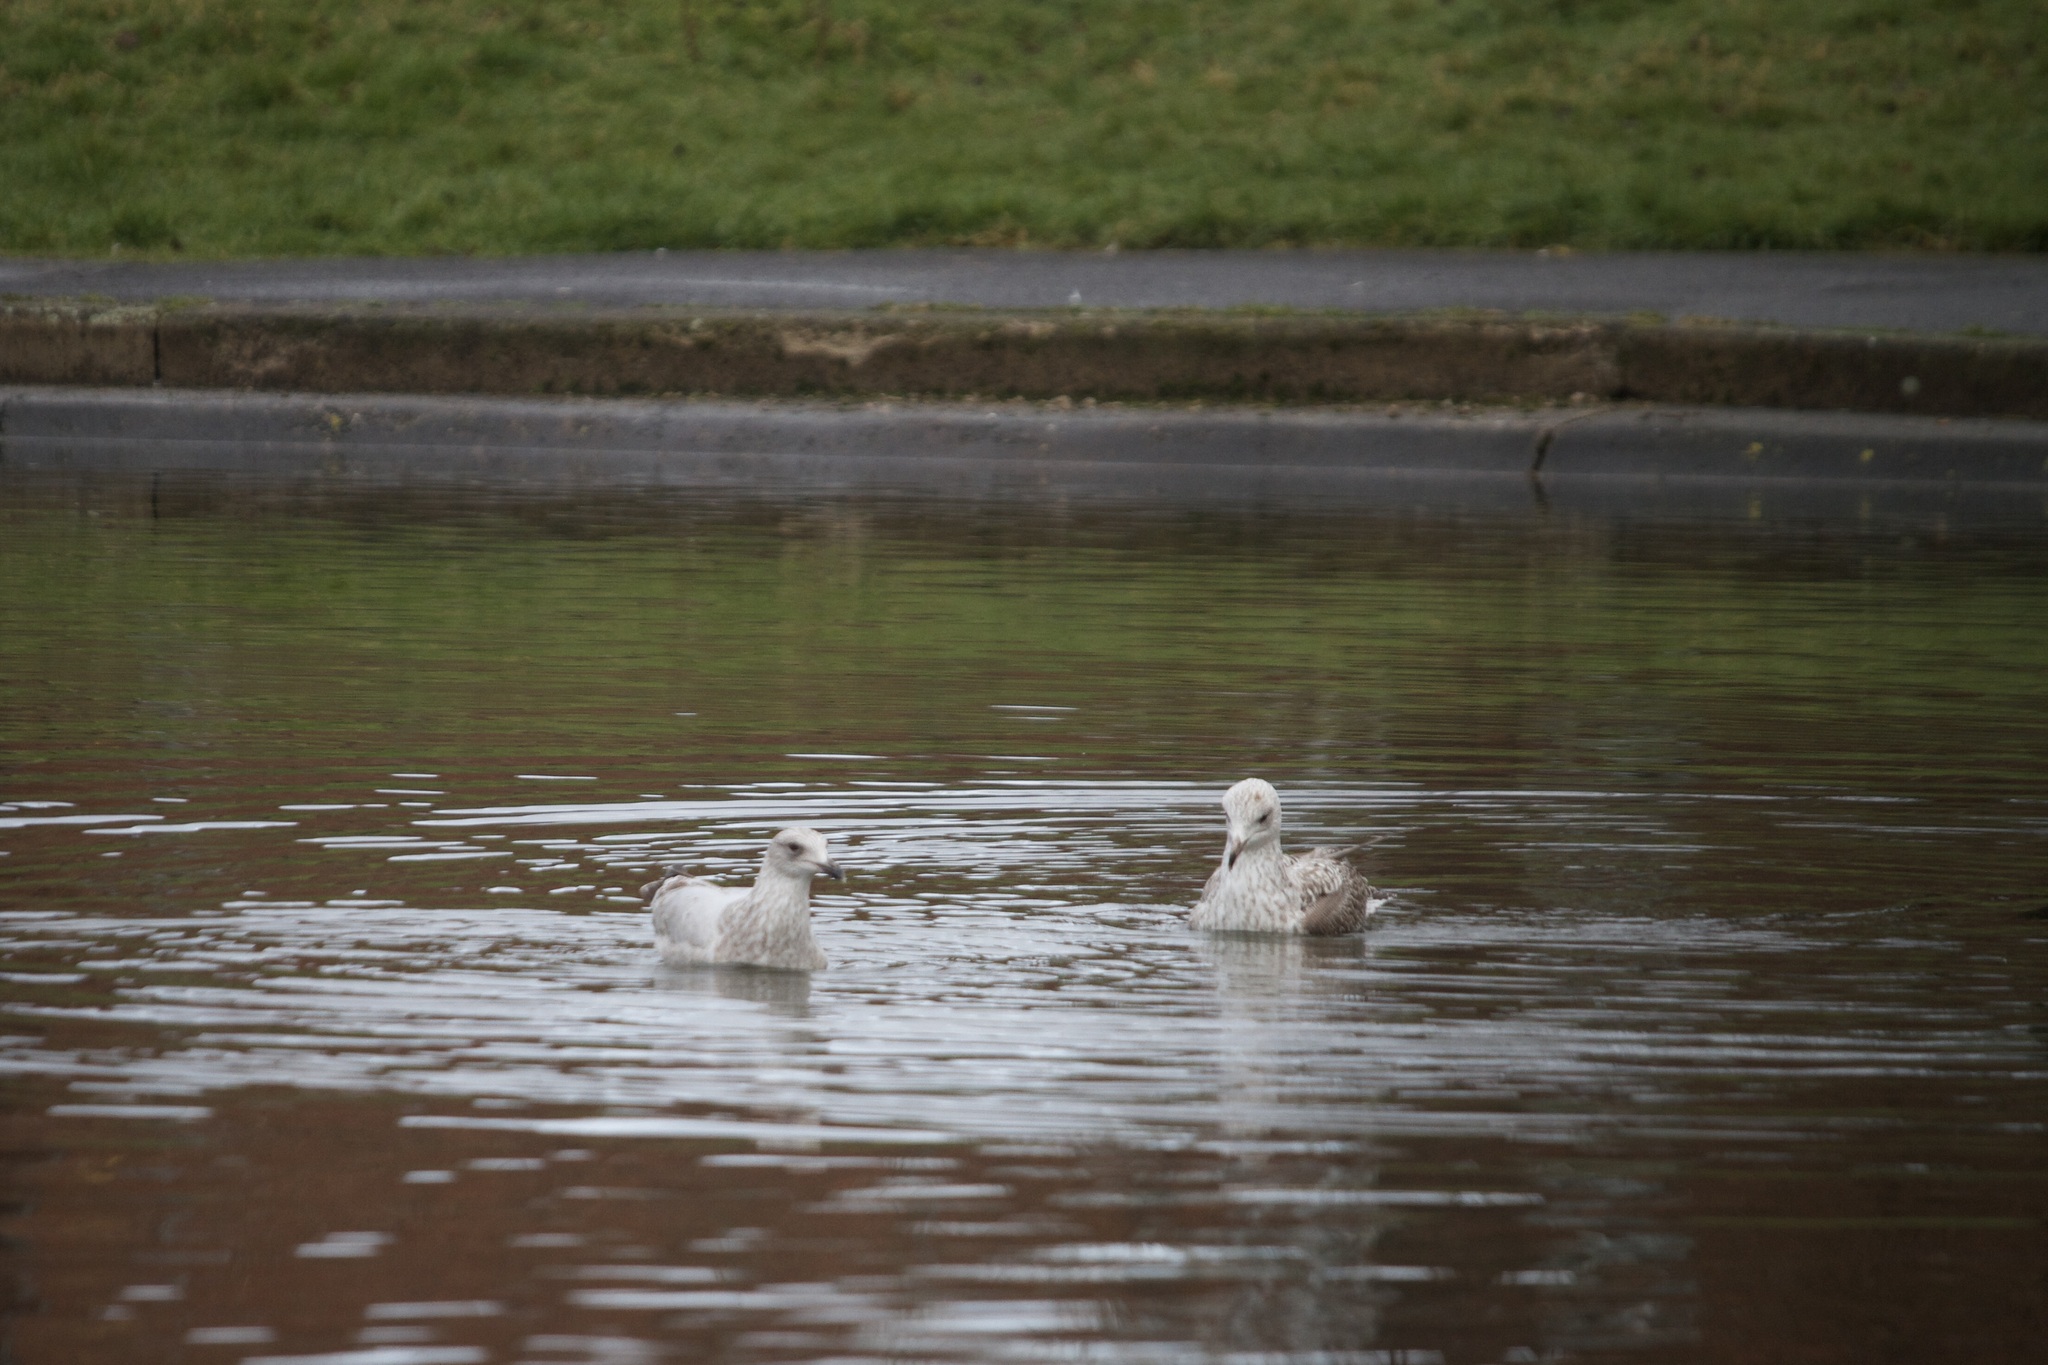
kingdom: Animalia
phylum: Chordata
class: Aves
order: Charadriiformes
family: Laridae
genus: Larus
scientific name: Larus argentatus
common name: Herring gull
